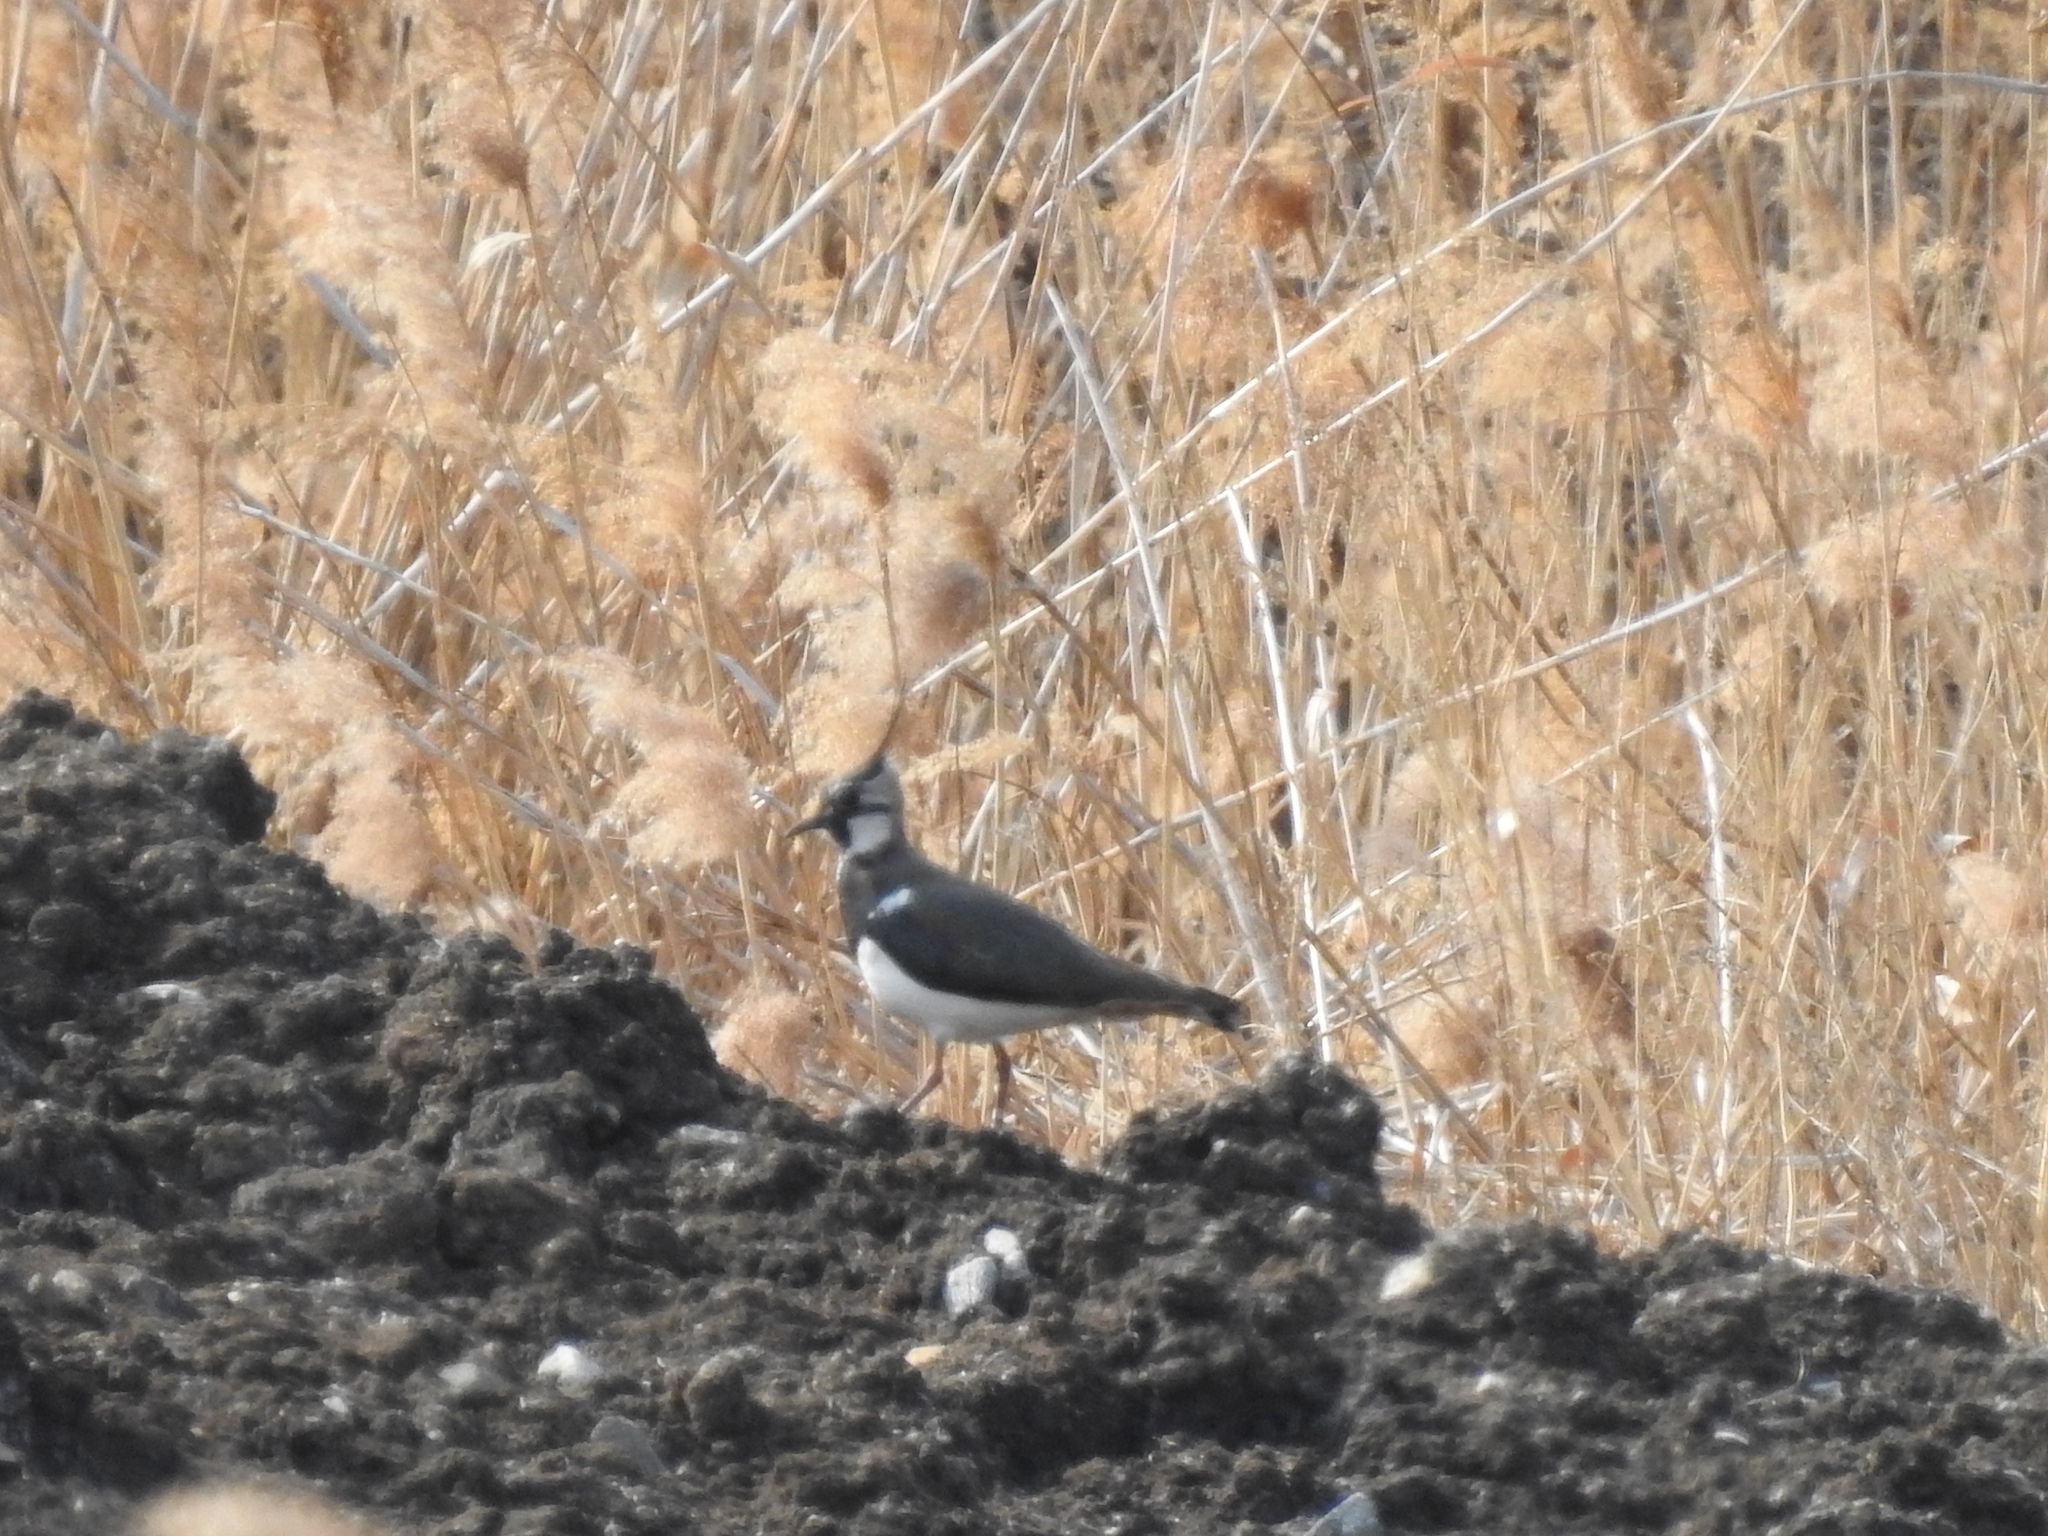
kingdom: Animalia
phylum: Chordata
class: Aves
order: Charadriiformes
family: Charadriidae
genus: Vanellus
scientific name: Vanellus vanellus
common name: Northern lapwing
